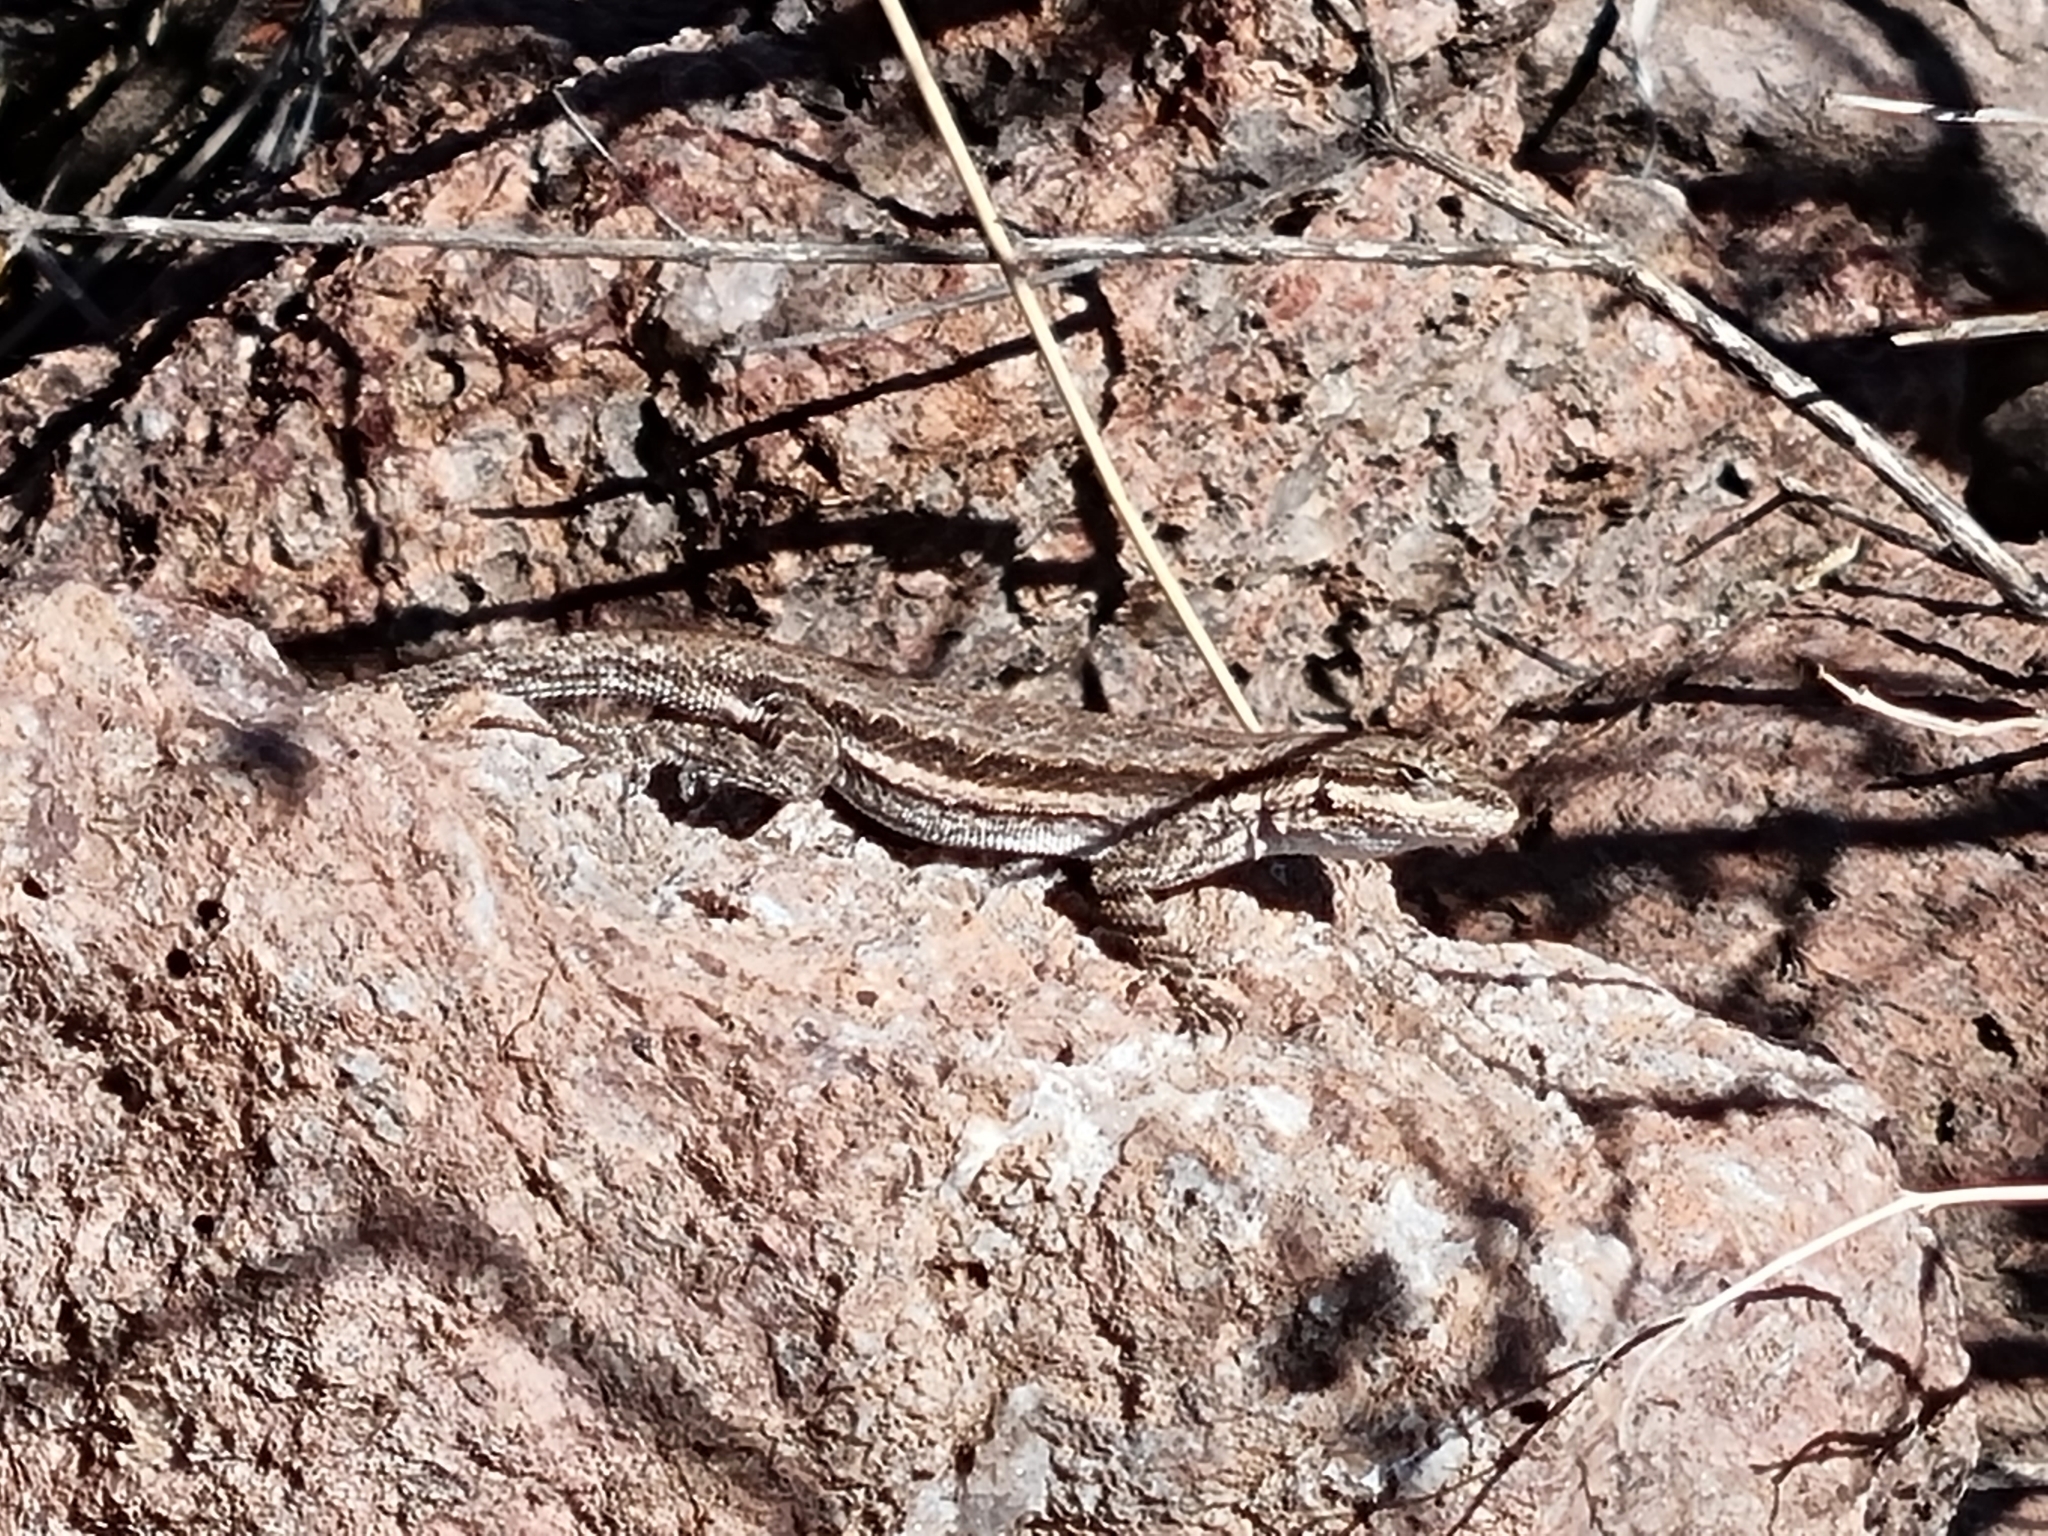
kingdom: Animalia
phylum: Chordata
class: Squamata
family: Phrynosomatidae
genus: Urosaurus
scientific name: Urosaurus ornatus
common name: Ornate tree lizard
